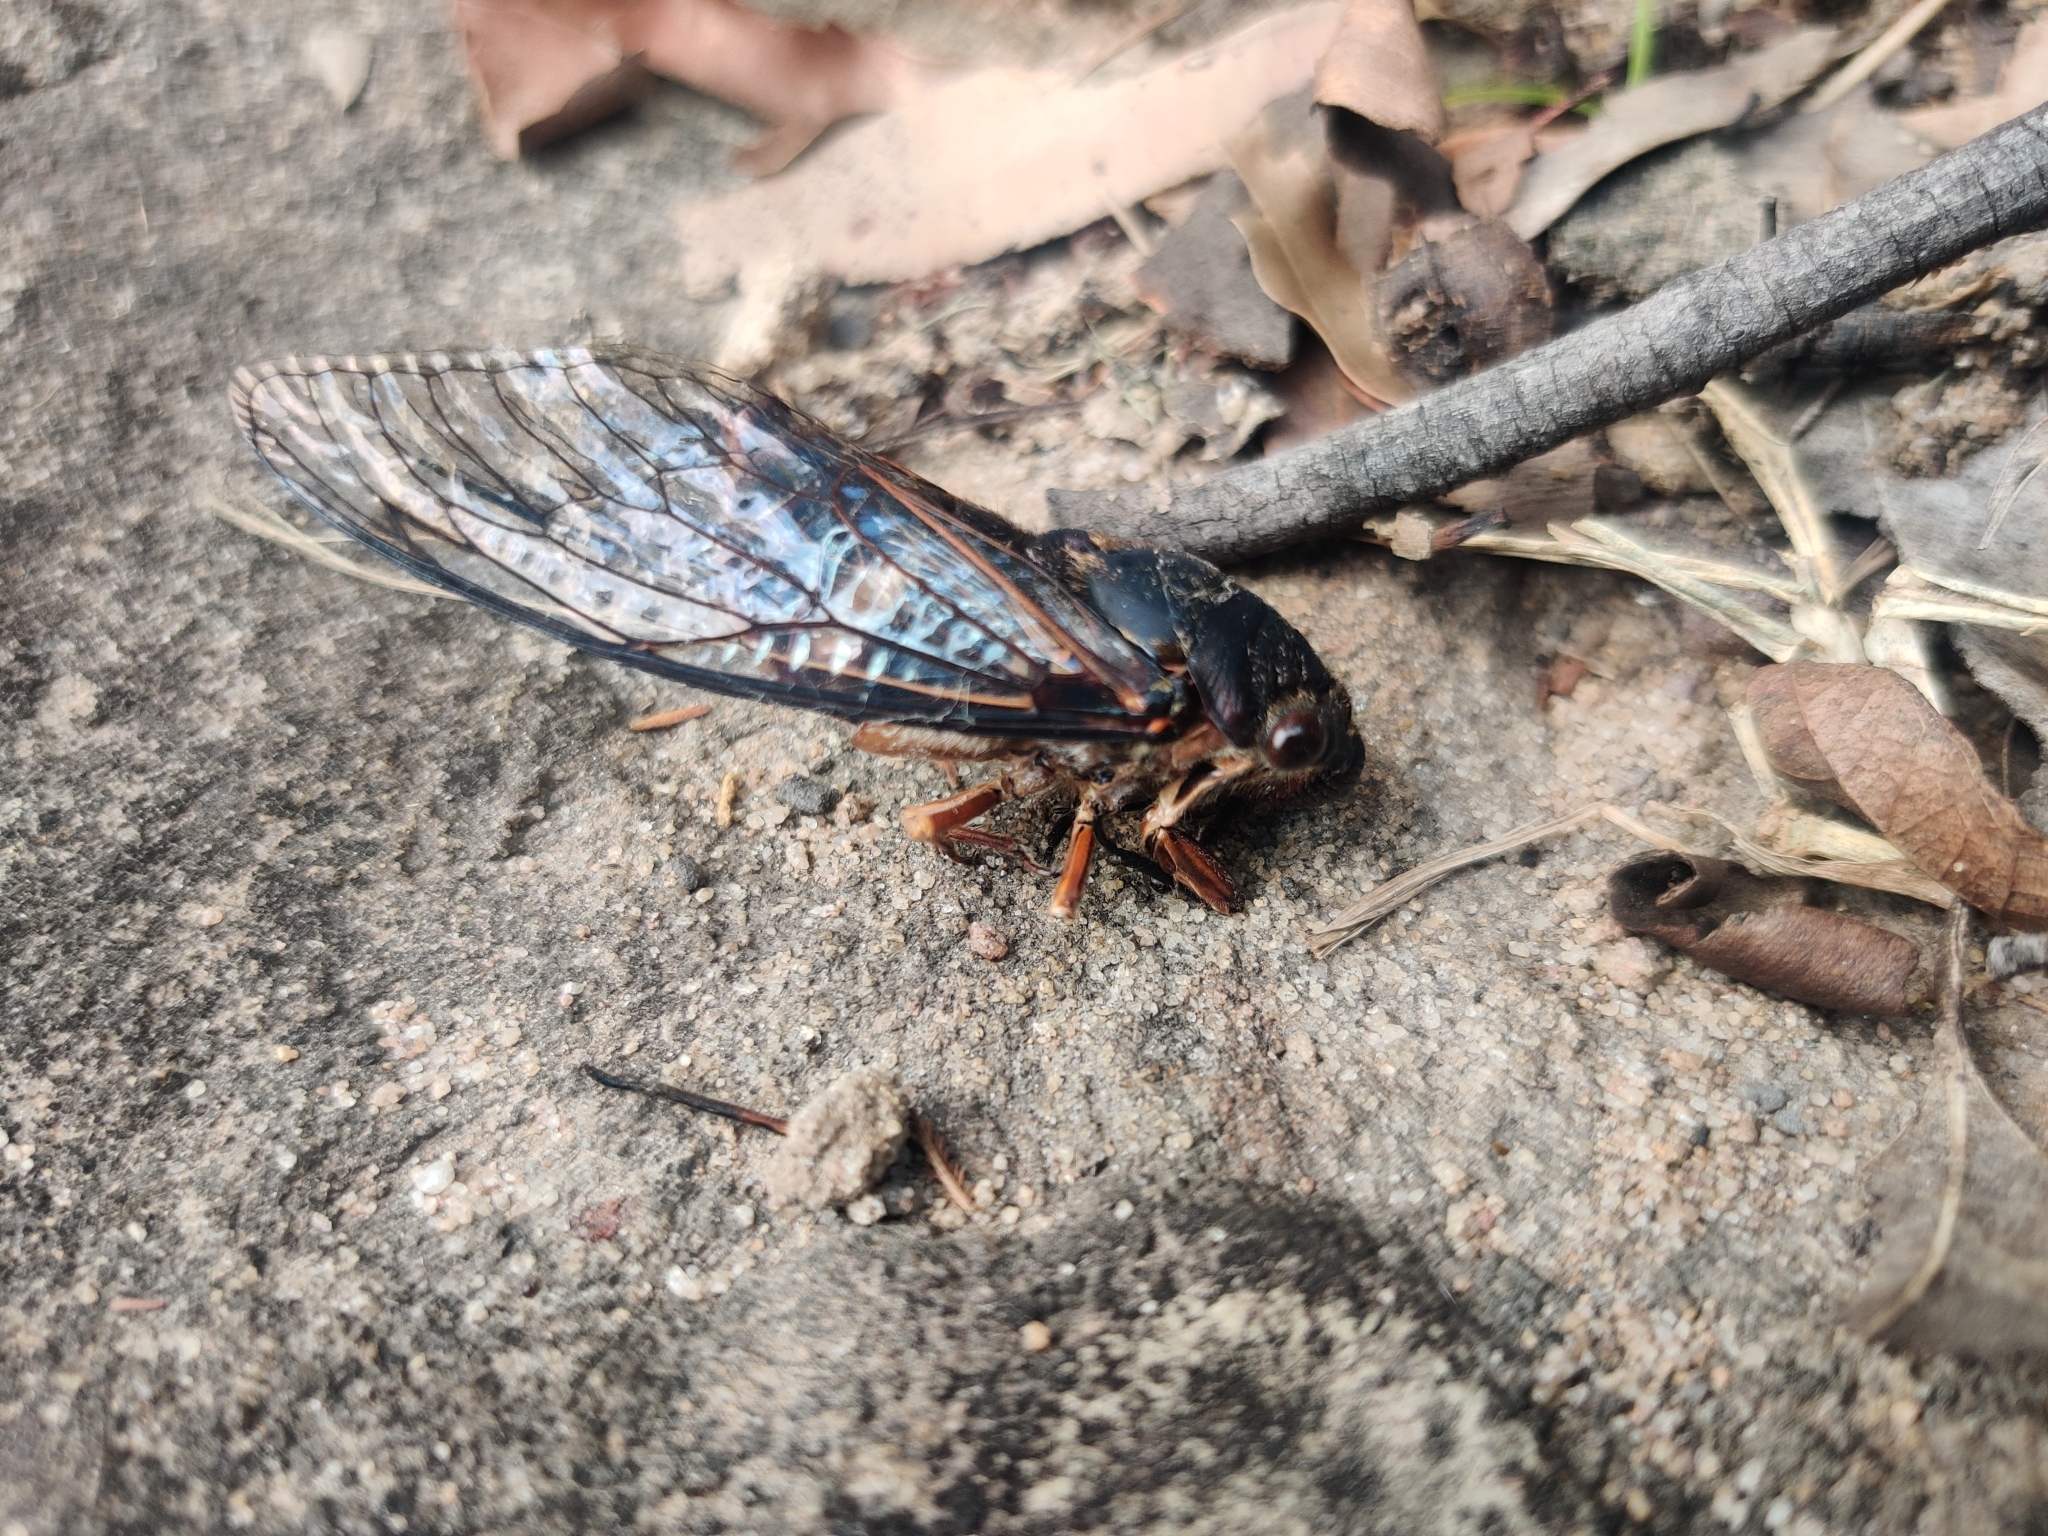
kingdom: Animalia
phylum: Arthropoda
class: Insecta
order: Hemiptera
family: Cicadidae
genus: Psaltoda
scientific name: Psaltoda plaga
